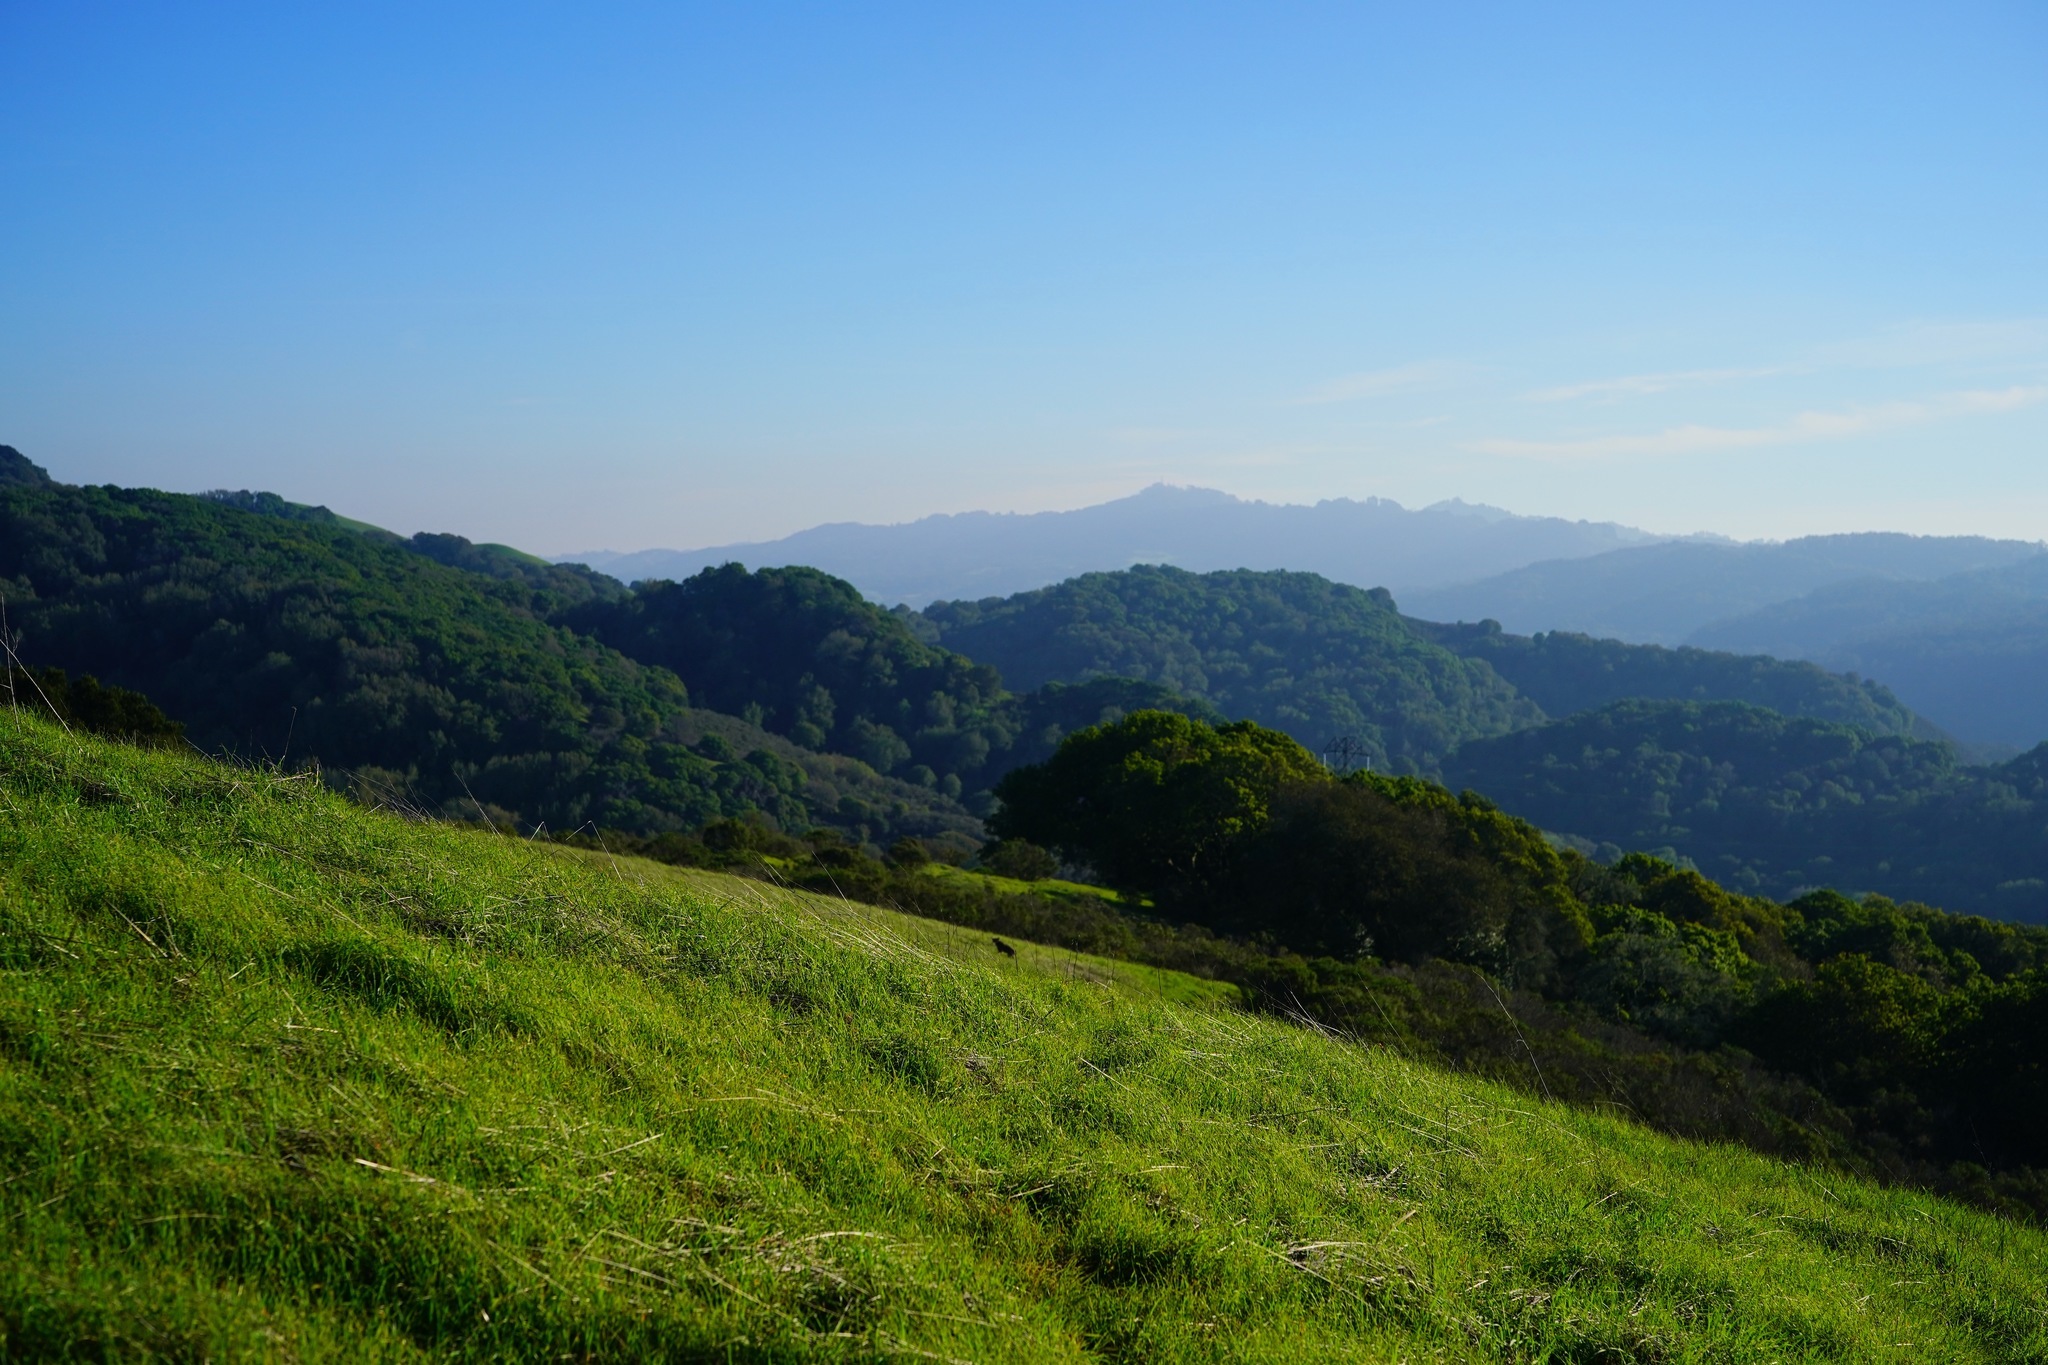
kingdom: Animalia
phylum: Chordata
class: Mammalia
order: Carnivora
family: Canidae
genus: Canis
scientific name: Canis latrans
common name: Coyote
